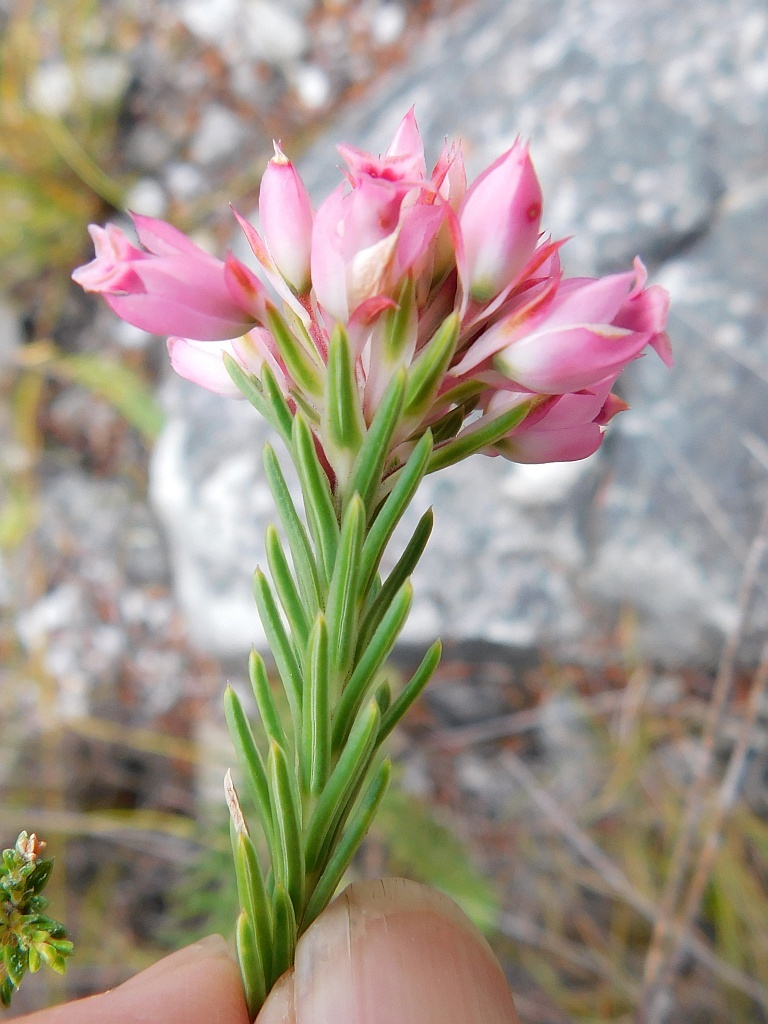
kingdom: Plantae
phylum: Tracheophyta
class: Magnoliopsida
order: Ericales
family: Ericaceae
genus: Erica
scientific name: Erica corifolia
